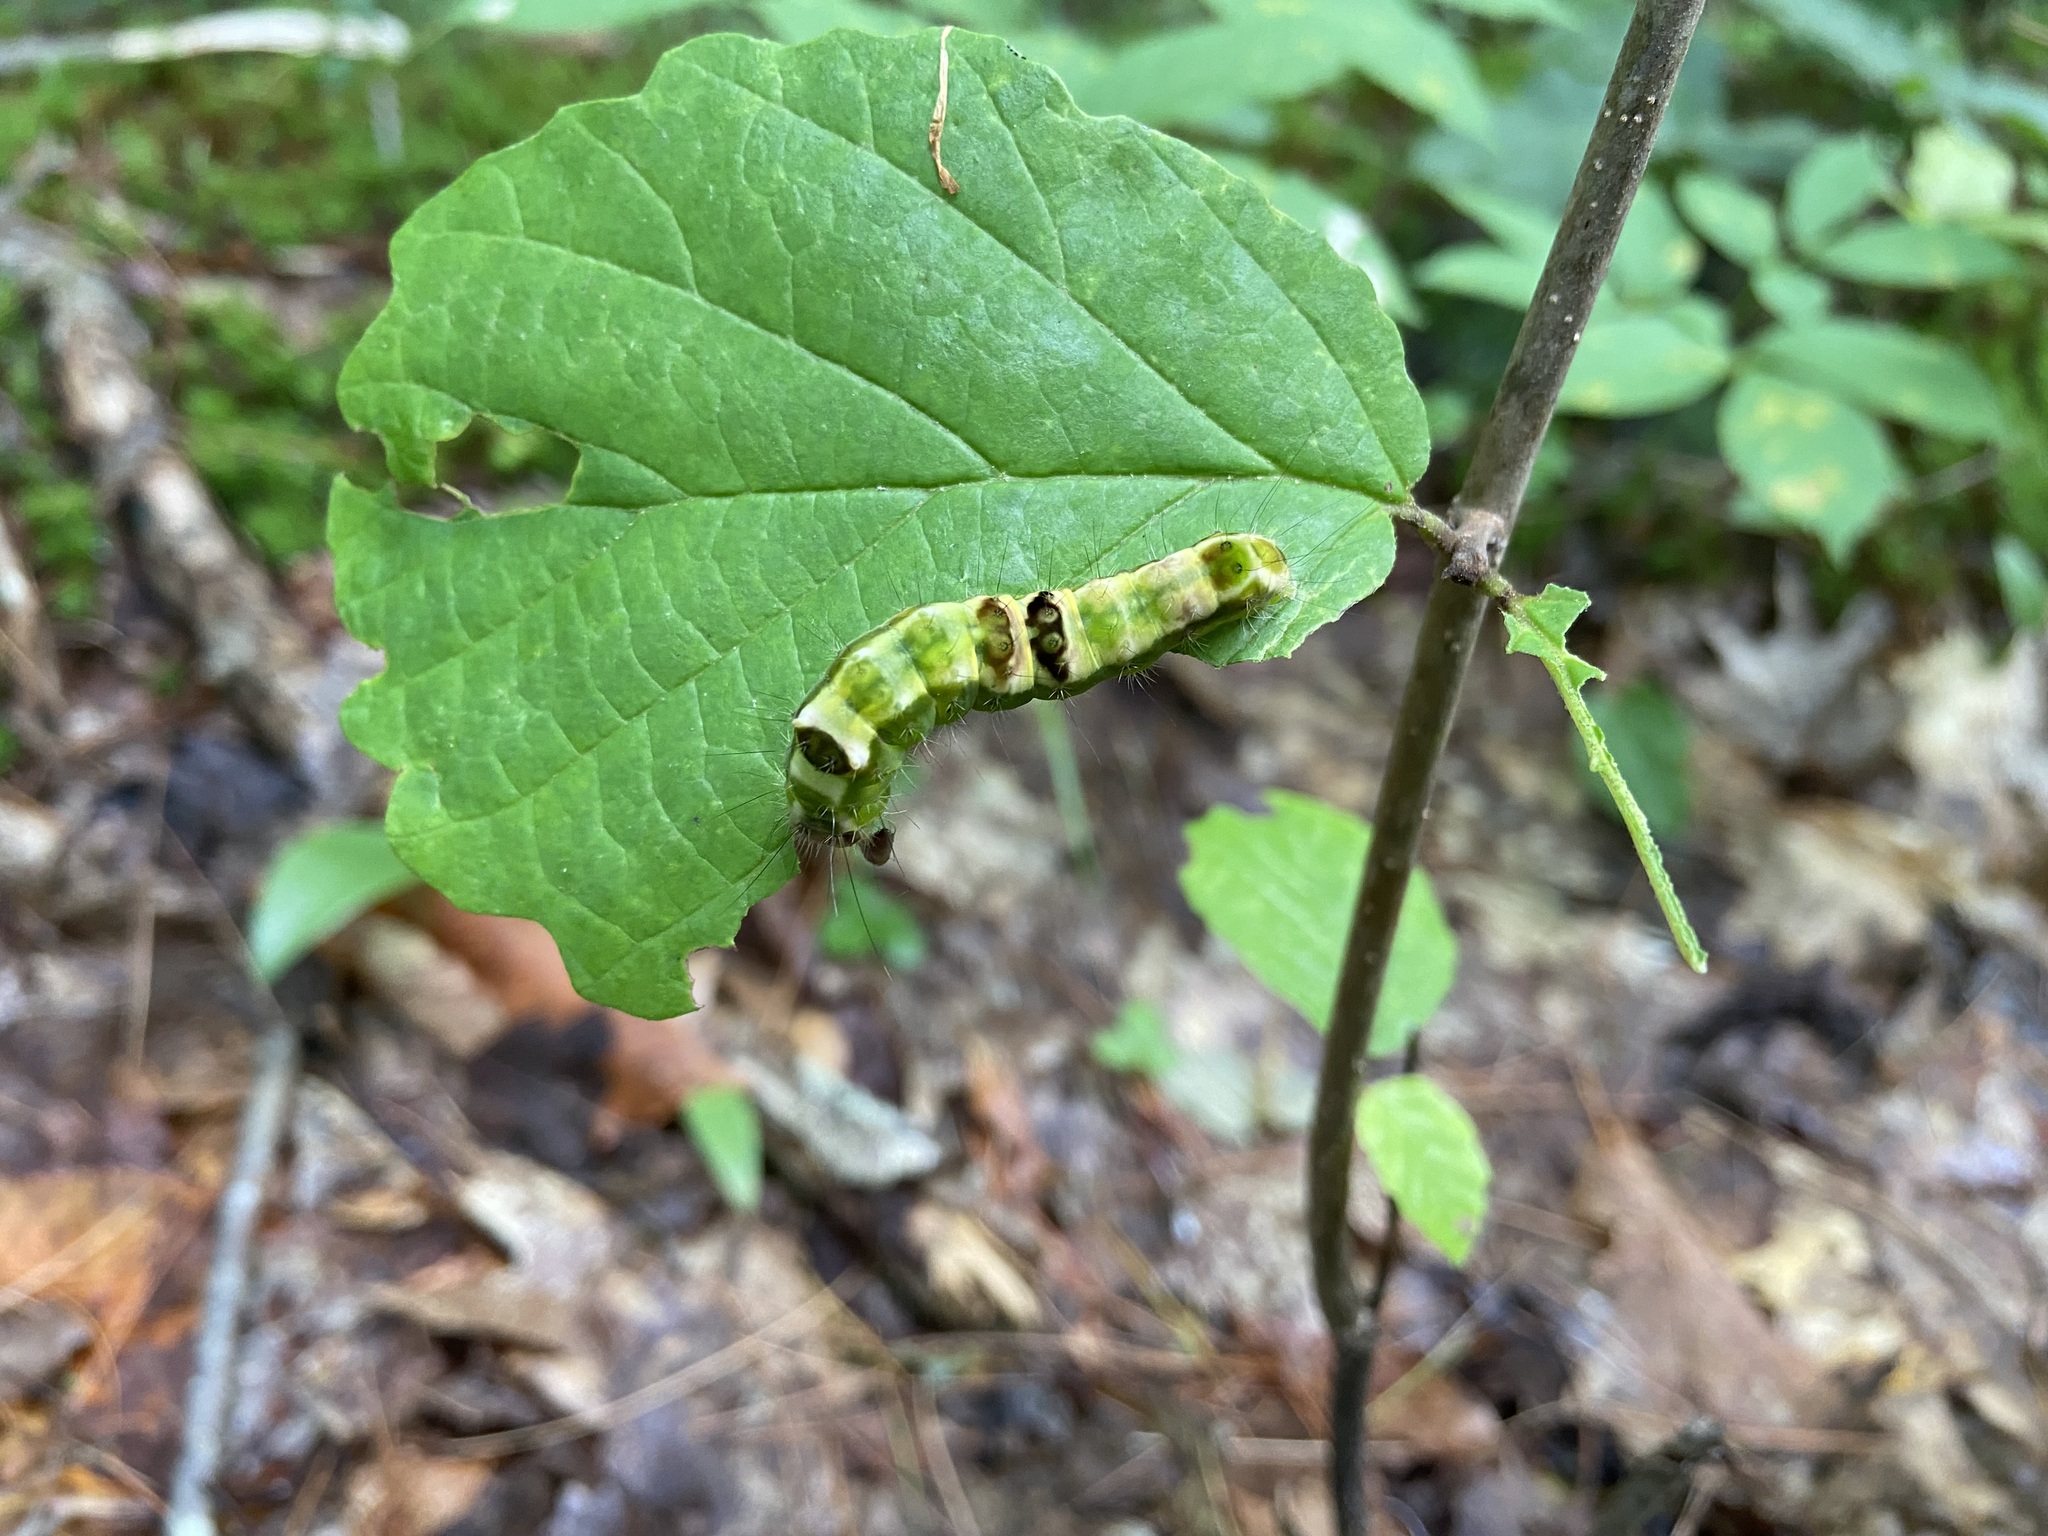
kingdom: Animalia
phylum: Arthropoda
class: Insecta
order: Lepidoptera
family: Noctuidae
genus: Acronicta
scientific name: Acronicta hamamelis
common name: Witch hazel dagger
